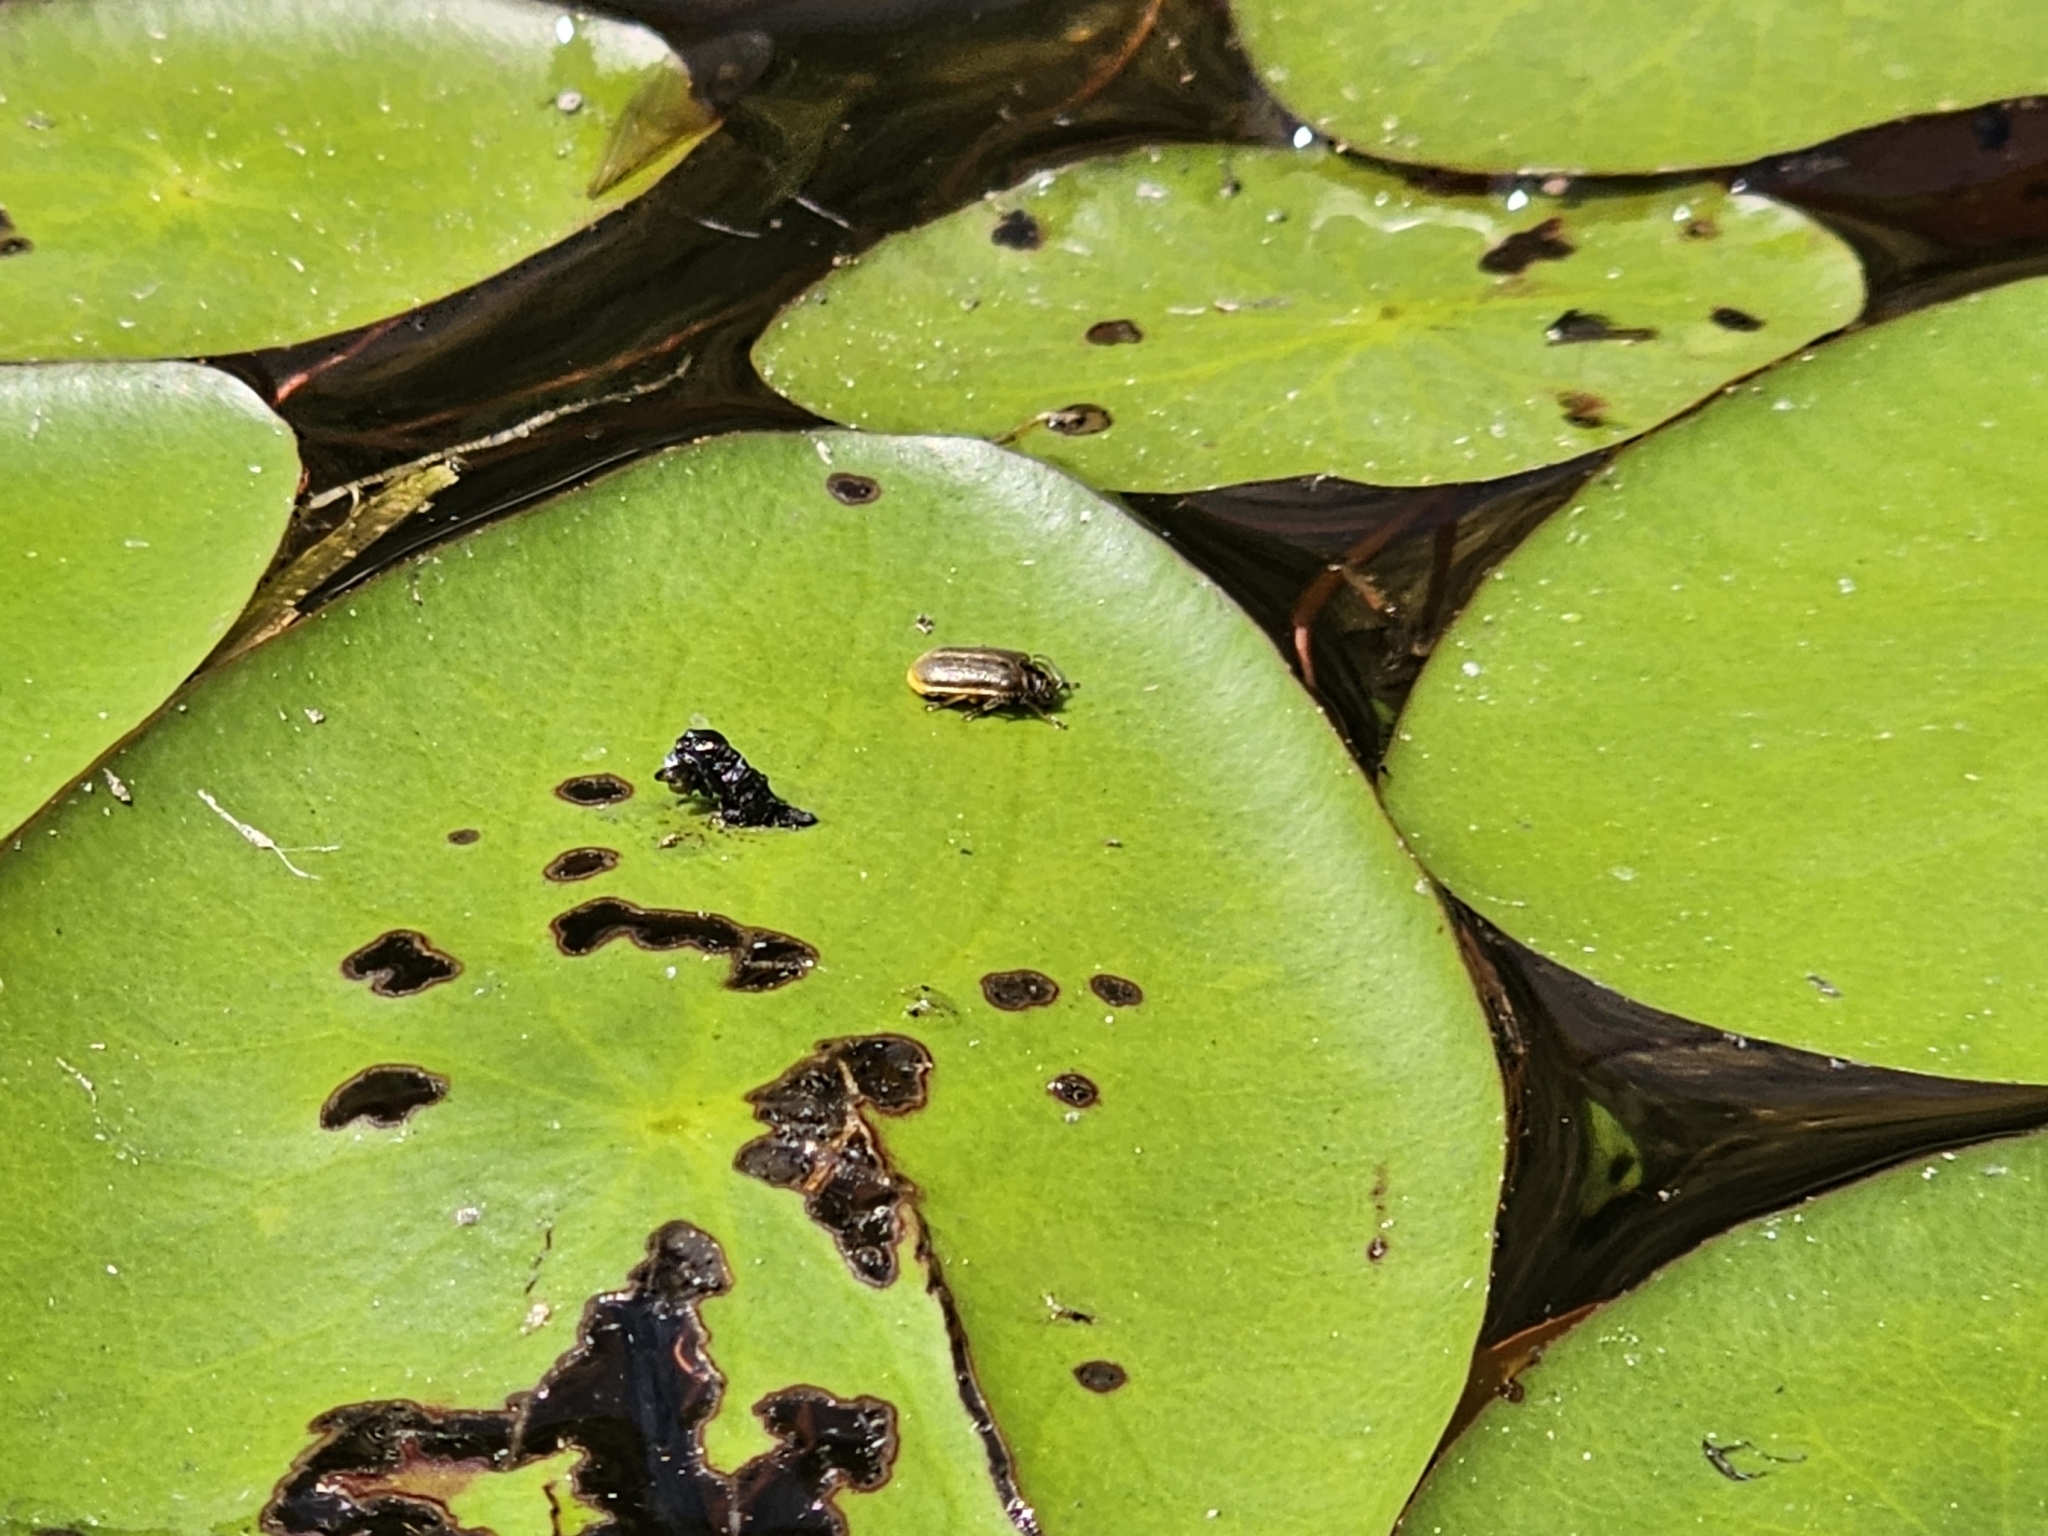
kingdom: Animalia
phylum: Arthropoda
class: Insecta
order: Coleoptera
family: Chrysomelidae
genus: Galerucella
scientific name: Galerucella nymphaeae
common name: Leaf beetle
